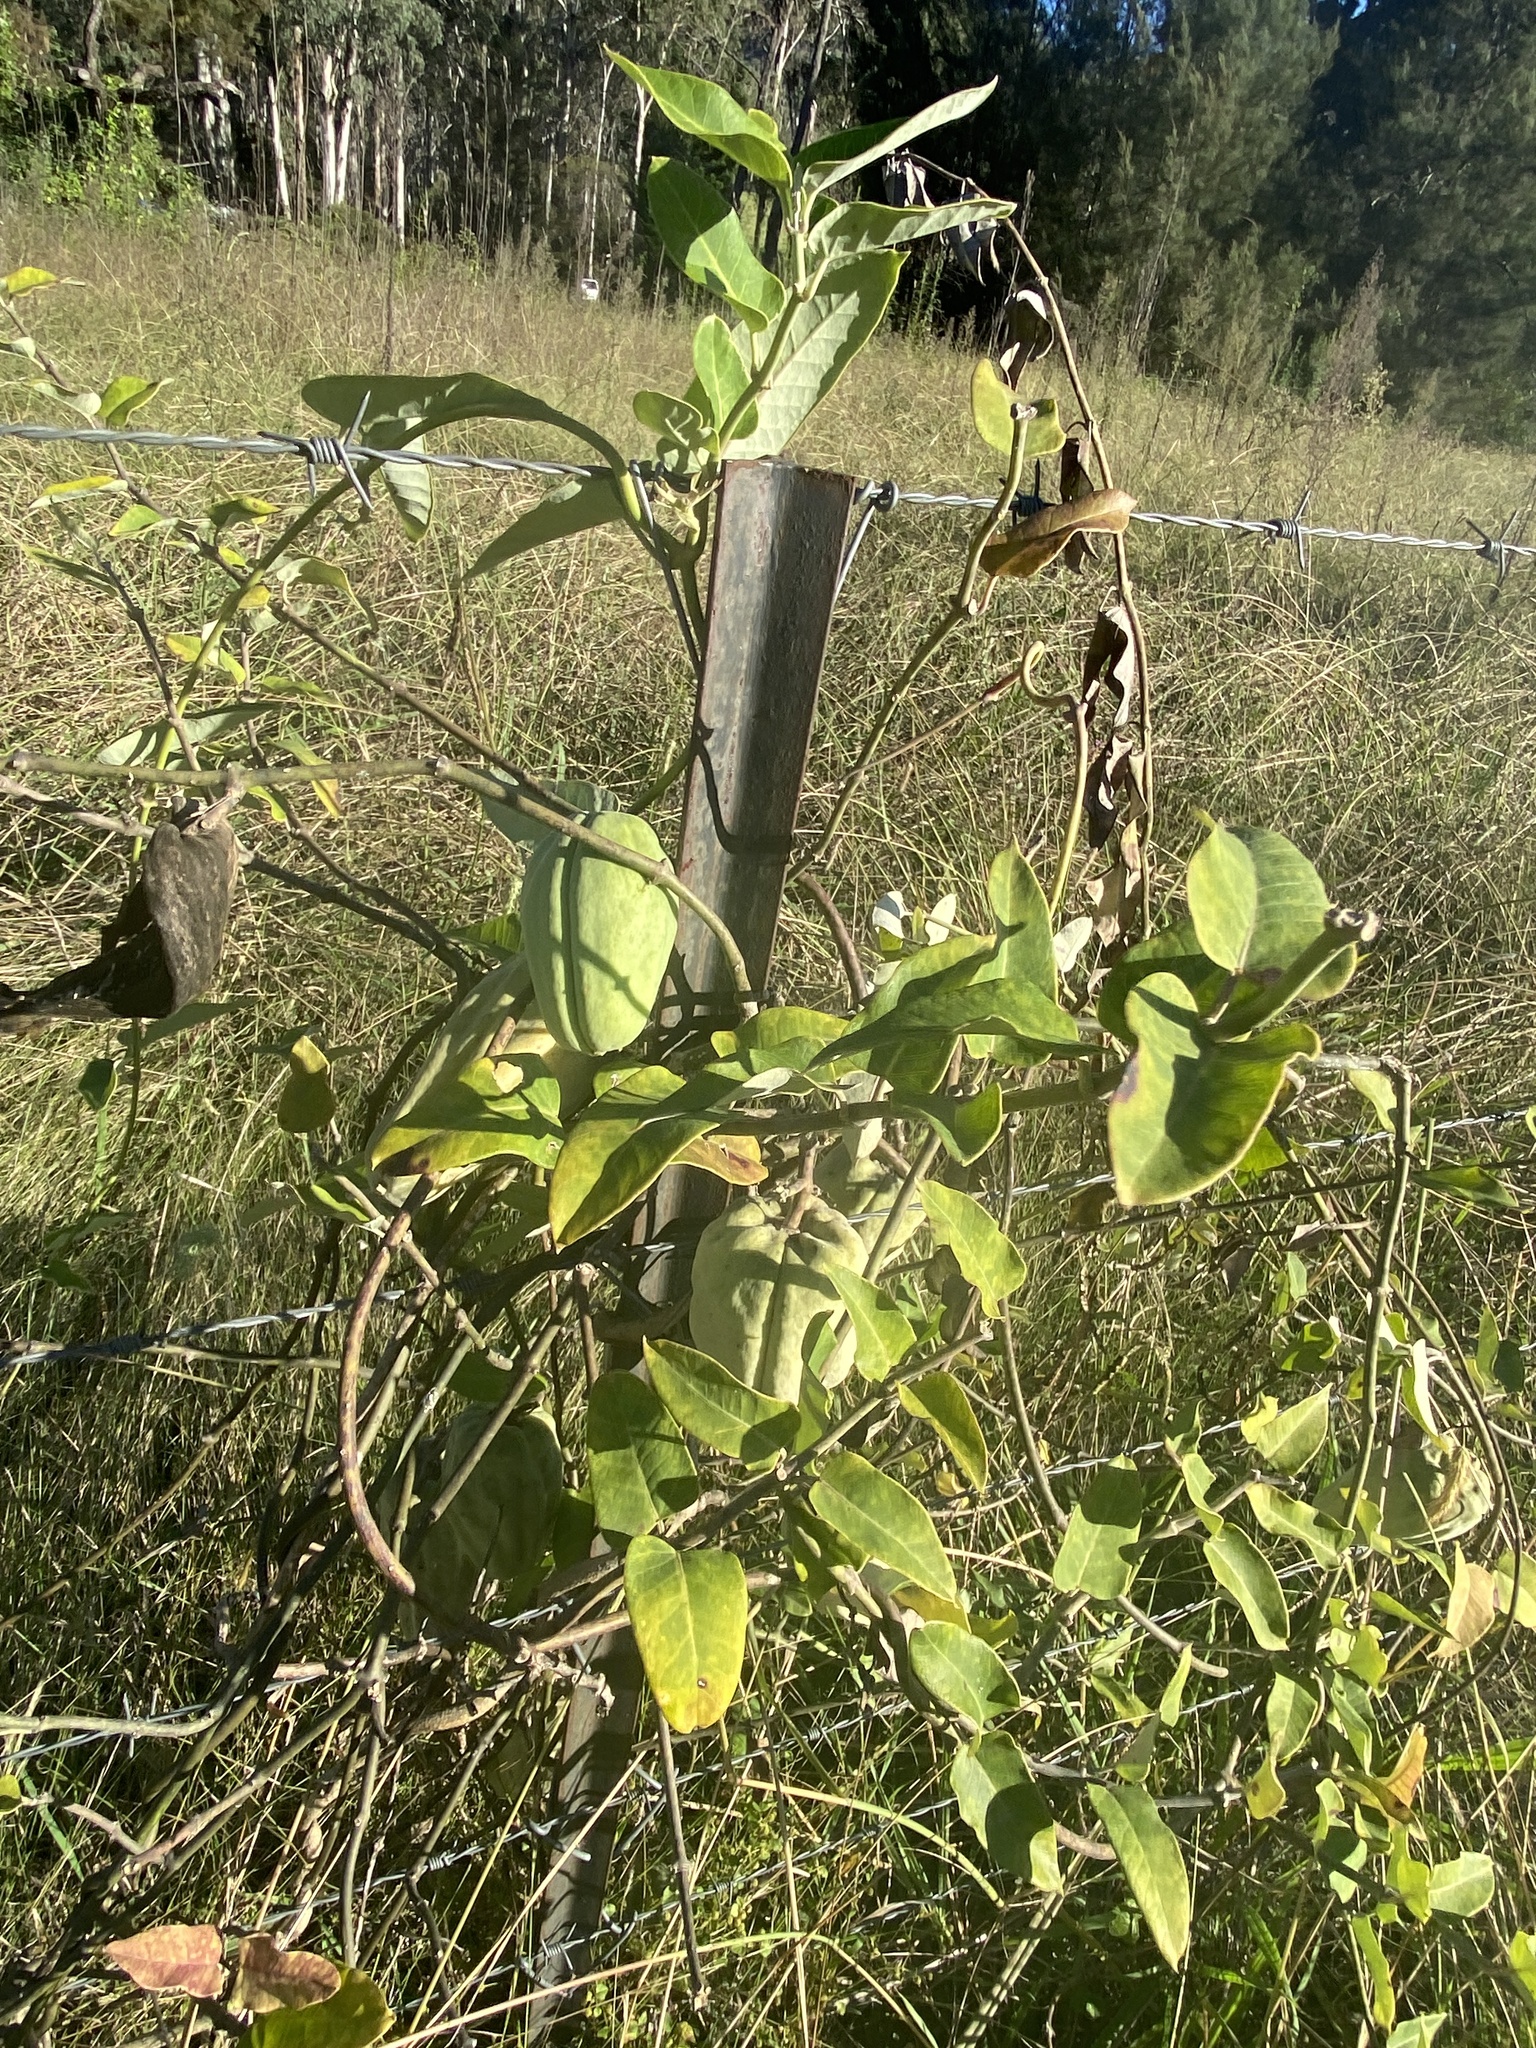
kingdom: Plantae
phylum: Tracheophyta
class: Magnoliopsida
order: Gentianales
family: Apocynaceae
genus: Araujia
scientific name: Araujia sericifera
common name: White bladderflower
